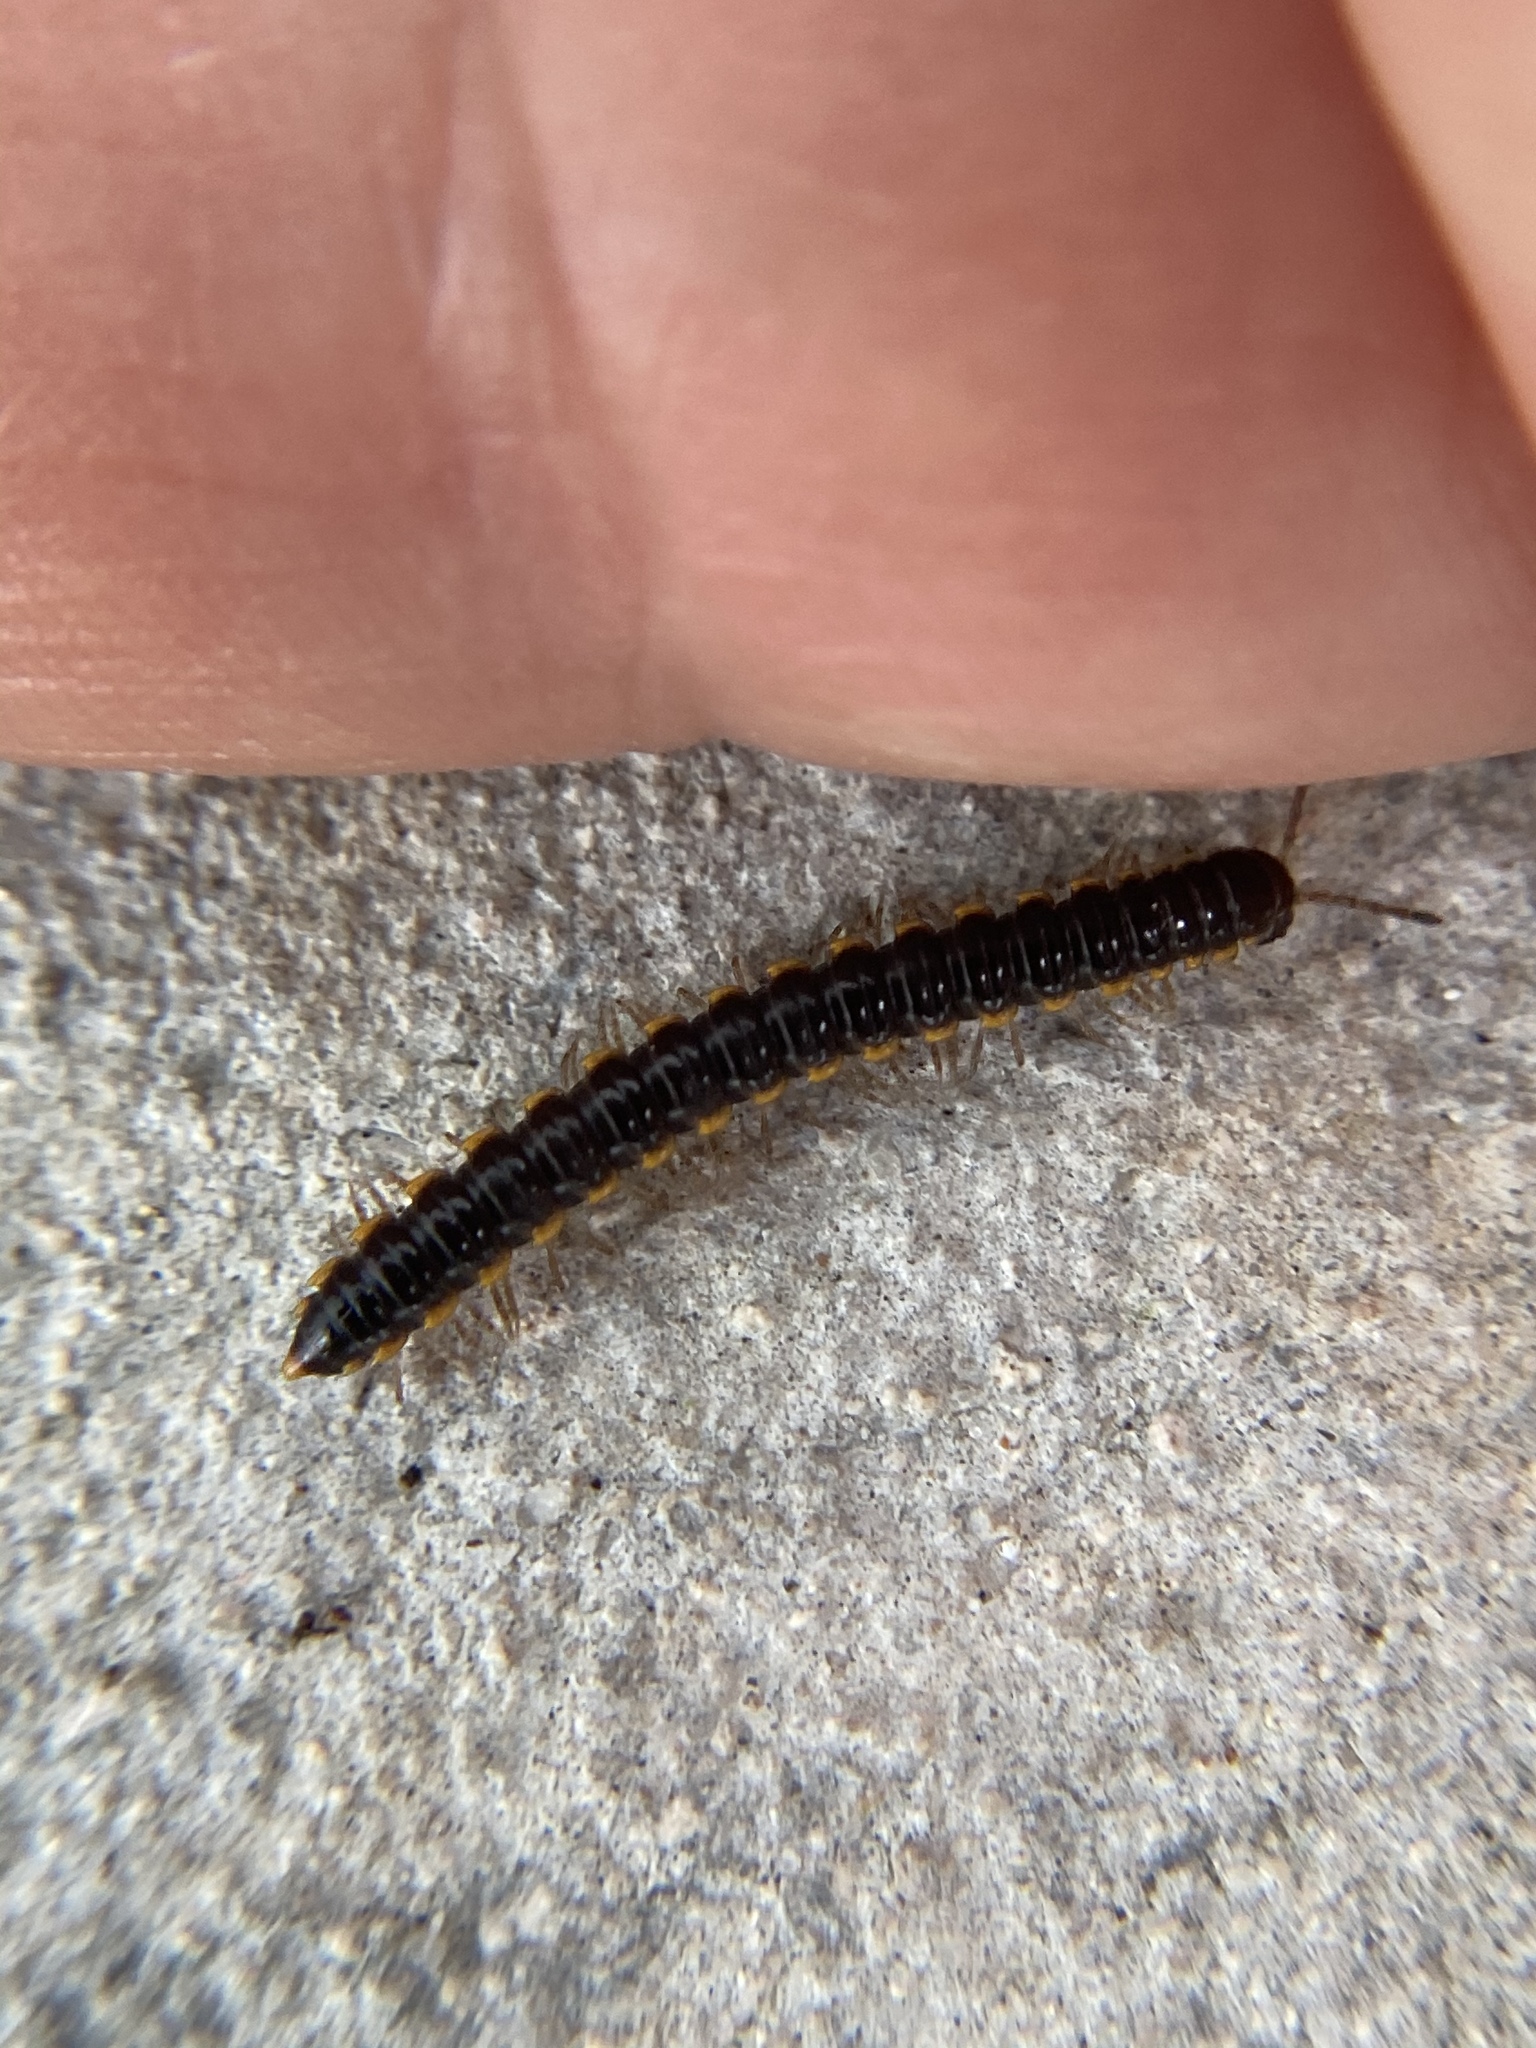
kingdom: Animalia
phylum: Arthropoda
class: Diplopoda
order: Polydesmida
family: Paradoxosomatidae
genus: Oxidus
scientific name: Oxidus gracilis
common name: Greenhouse millipede
